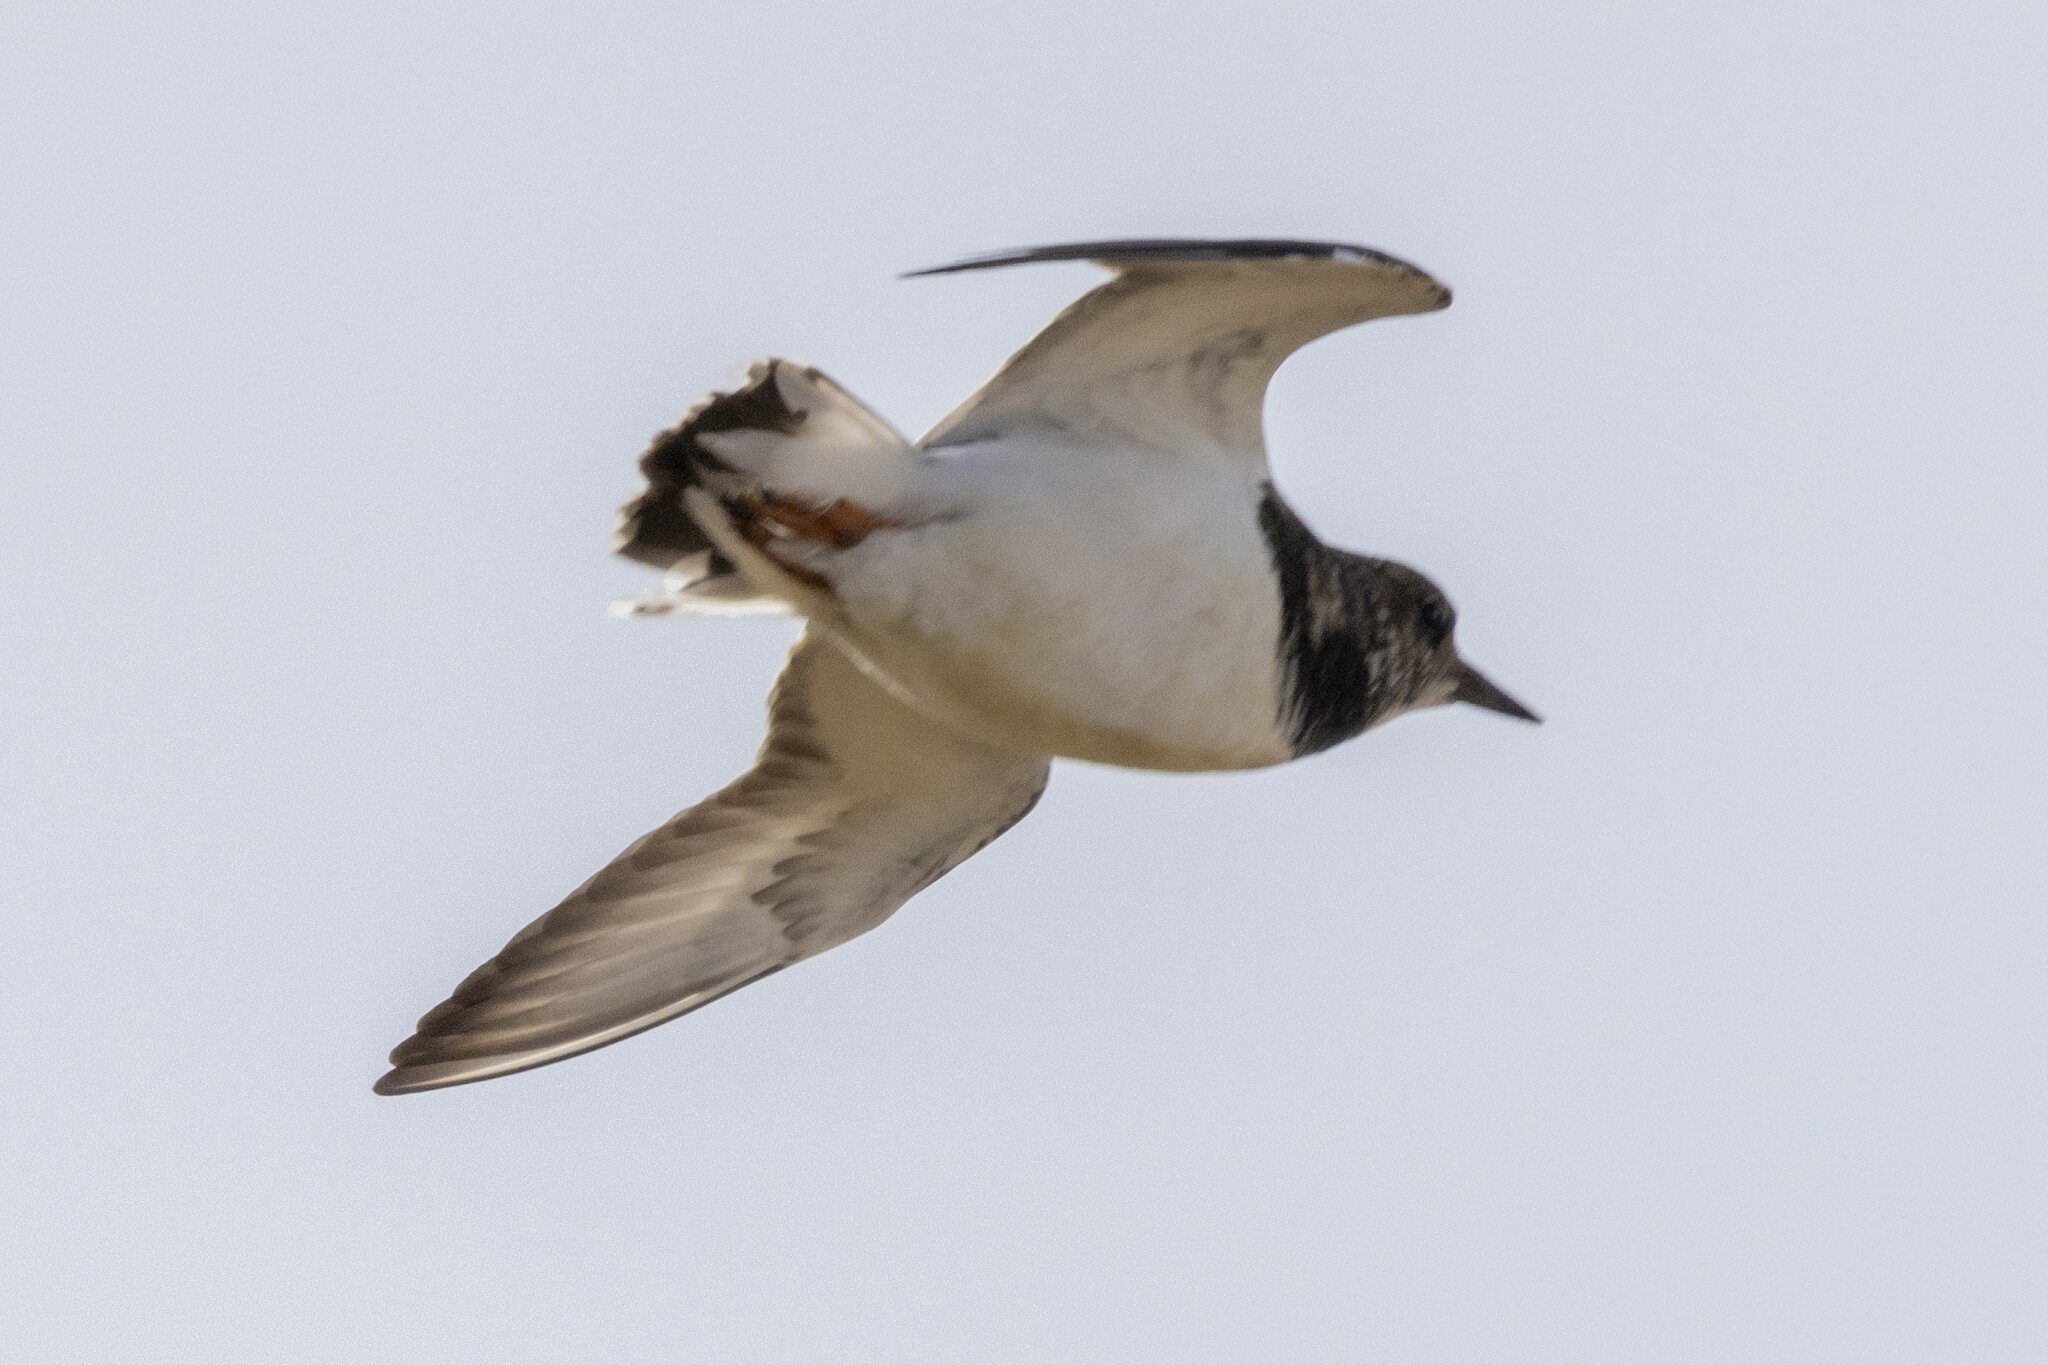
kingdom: Animalia
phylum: Chordata
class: Aves
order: Charadriiformes
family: Scolopacidae
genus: Arenaria
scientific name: Arenaria interpres
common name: Ruddy turnstone
